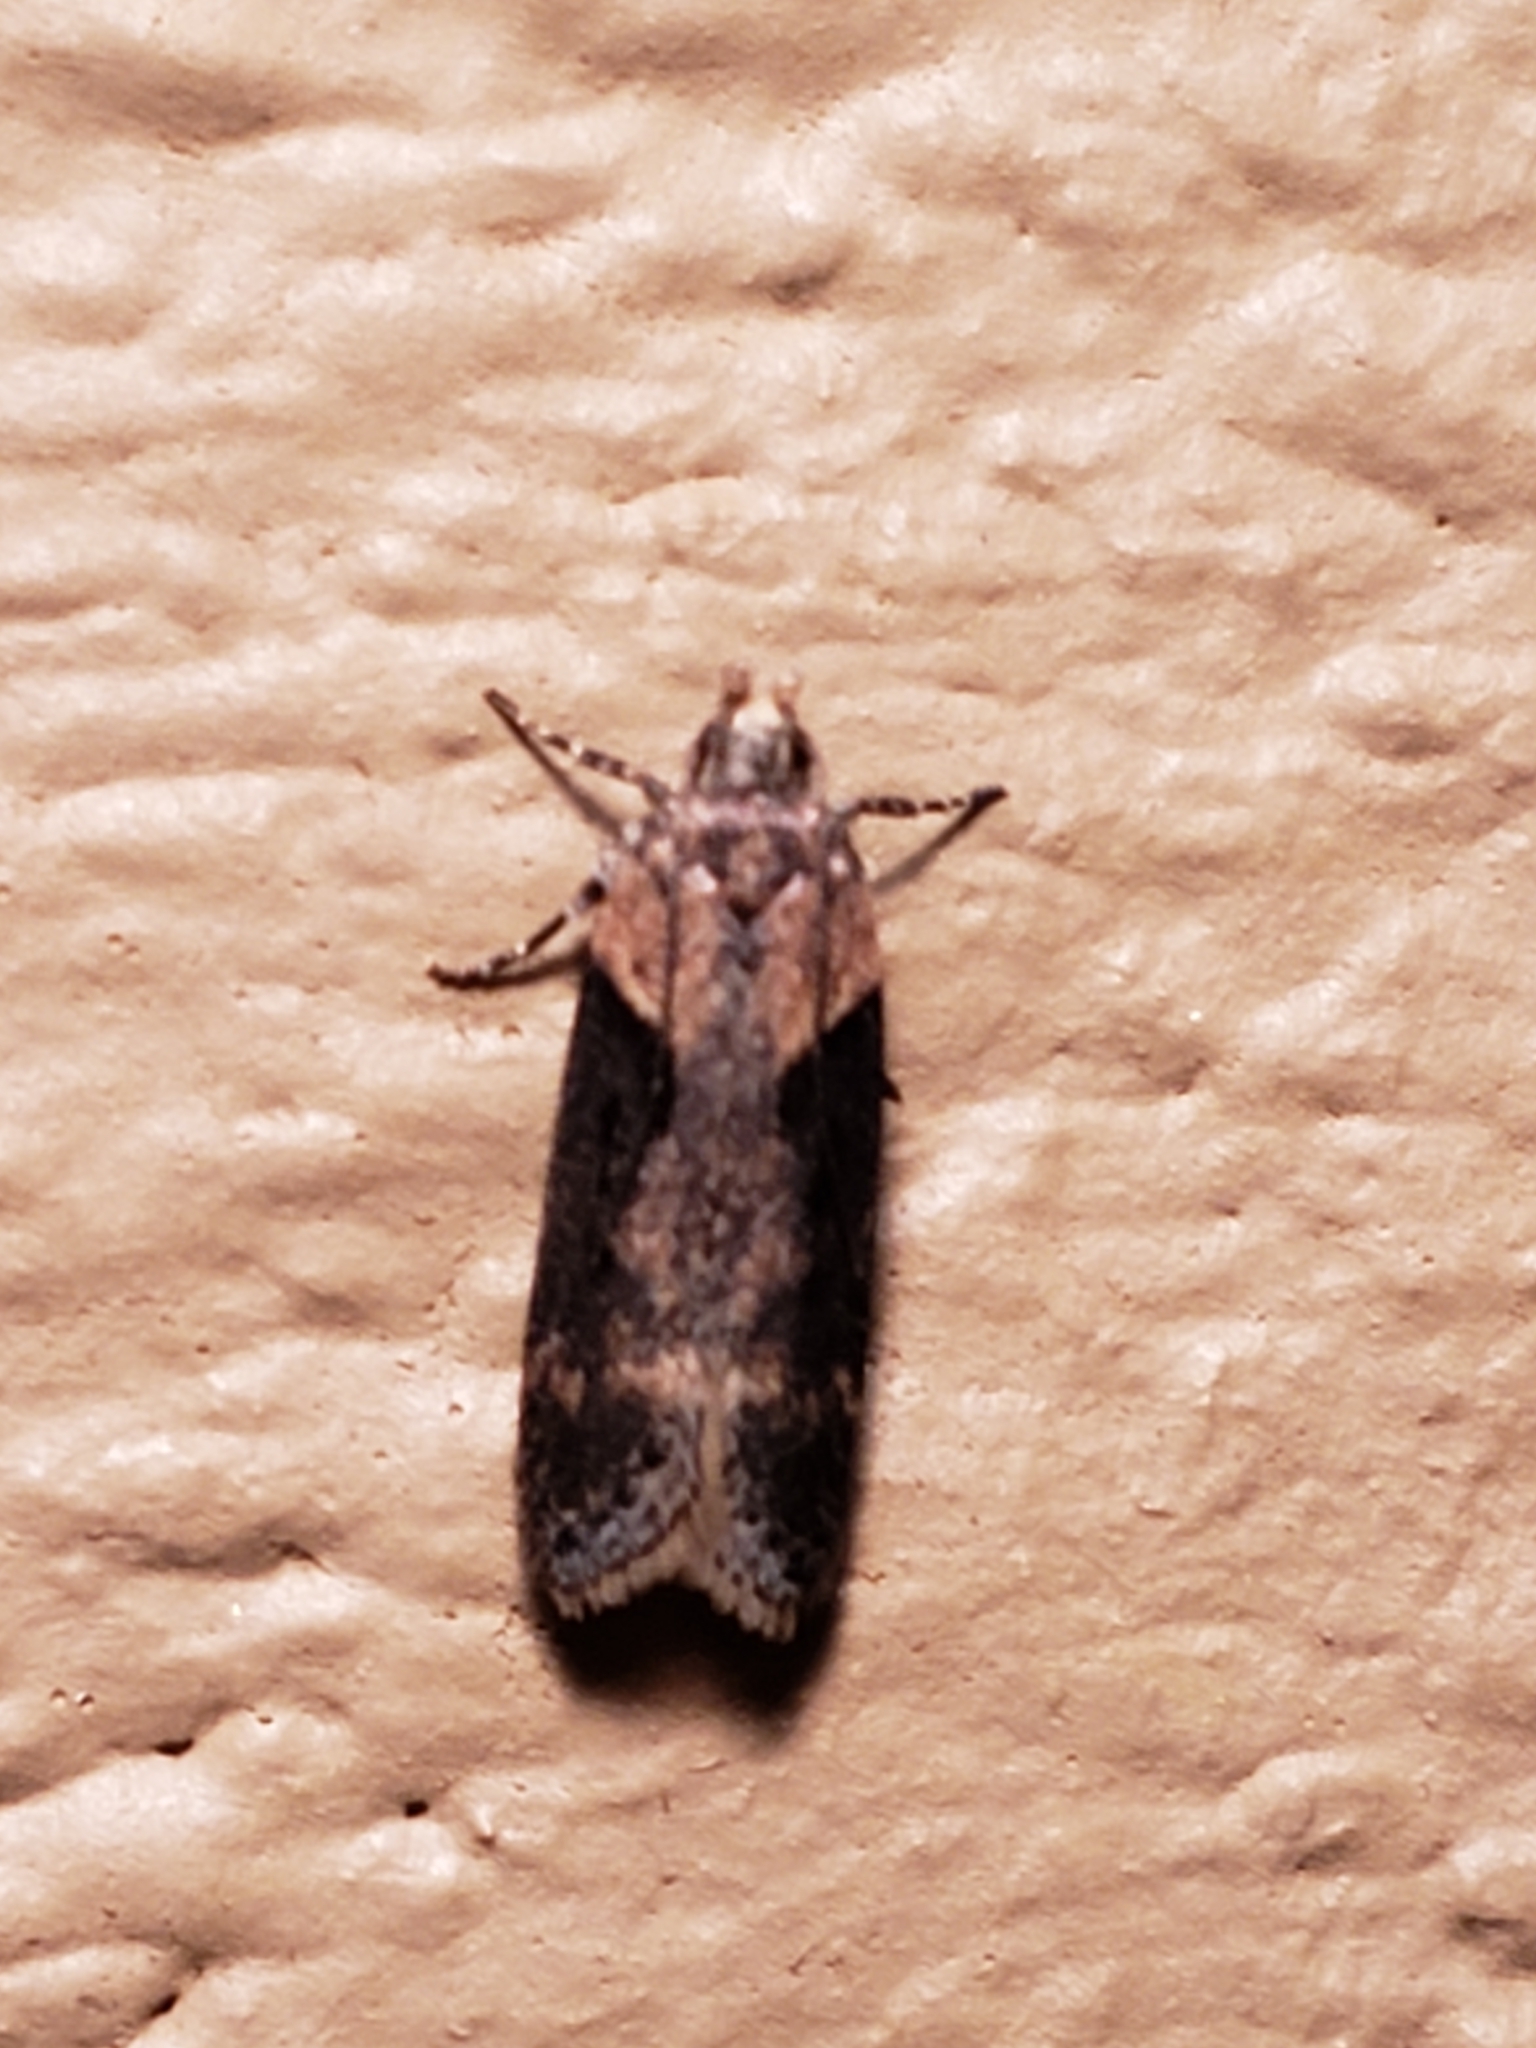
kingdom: Animalia
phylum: Arthropoda
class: Insecta
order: Lepidoptera
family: Gelechiidae
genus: Chionodes
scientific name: Chionodes mediofuscella
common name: Black-smudged chionodes moth
